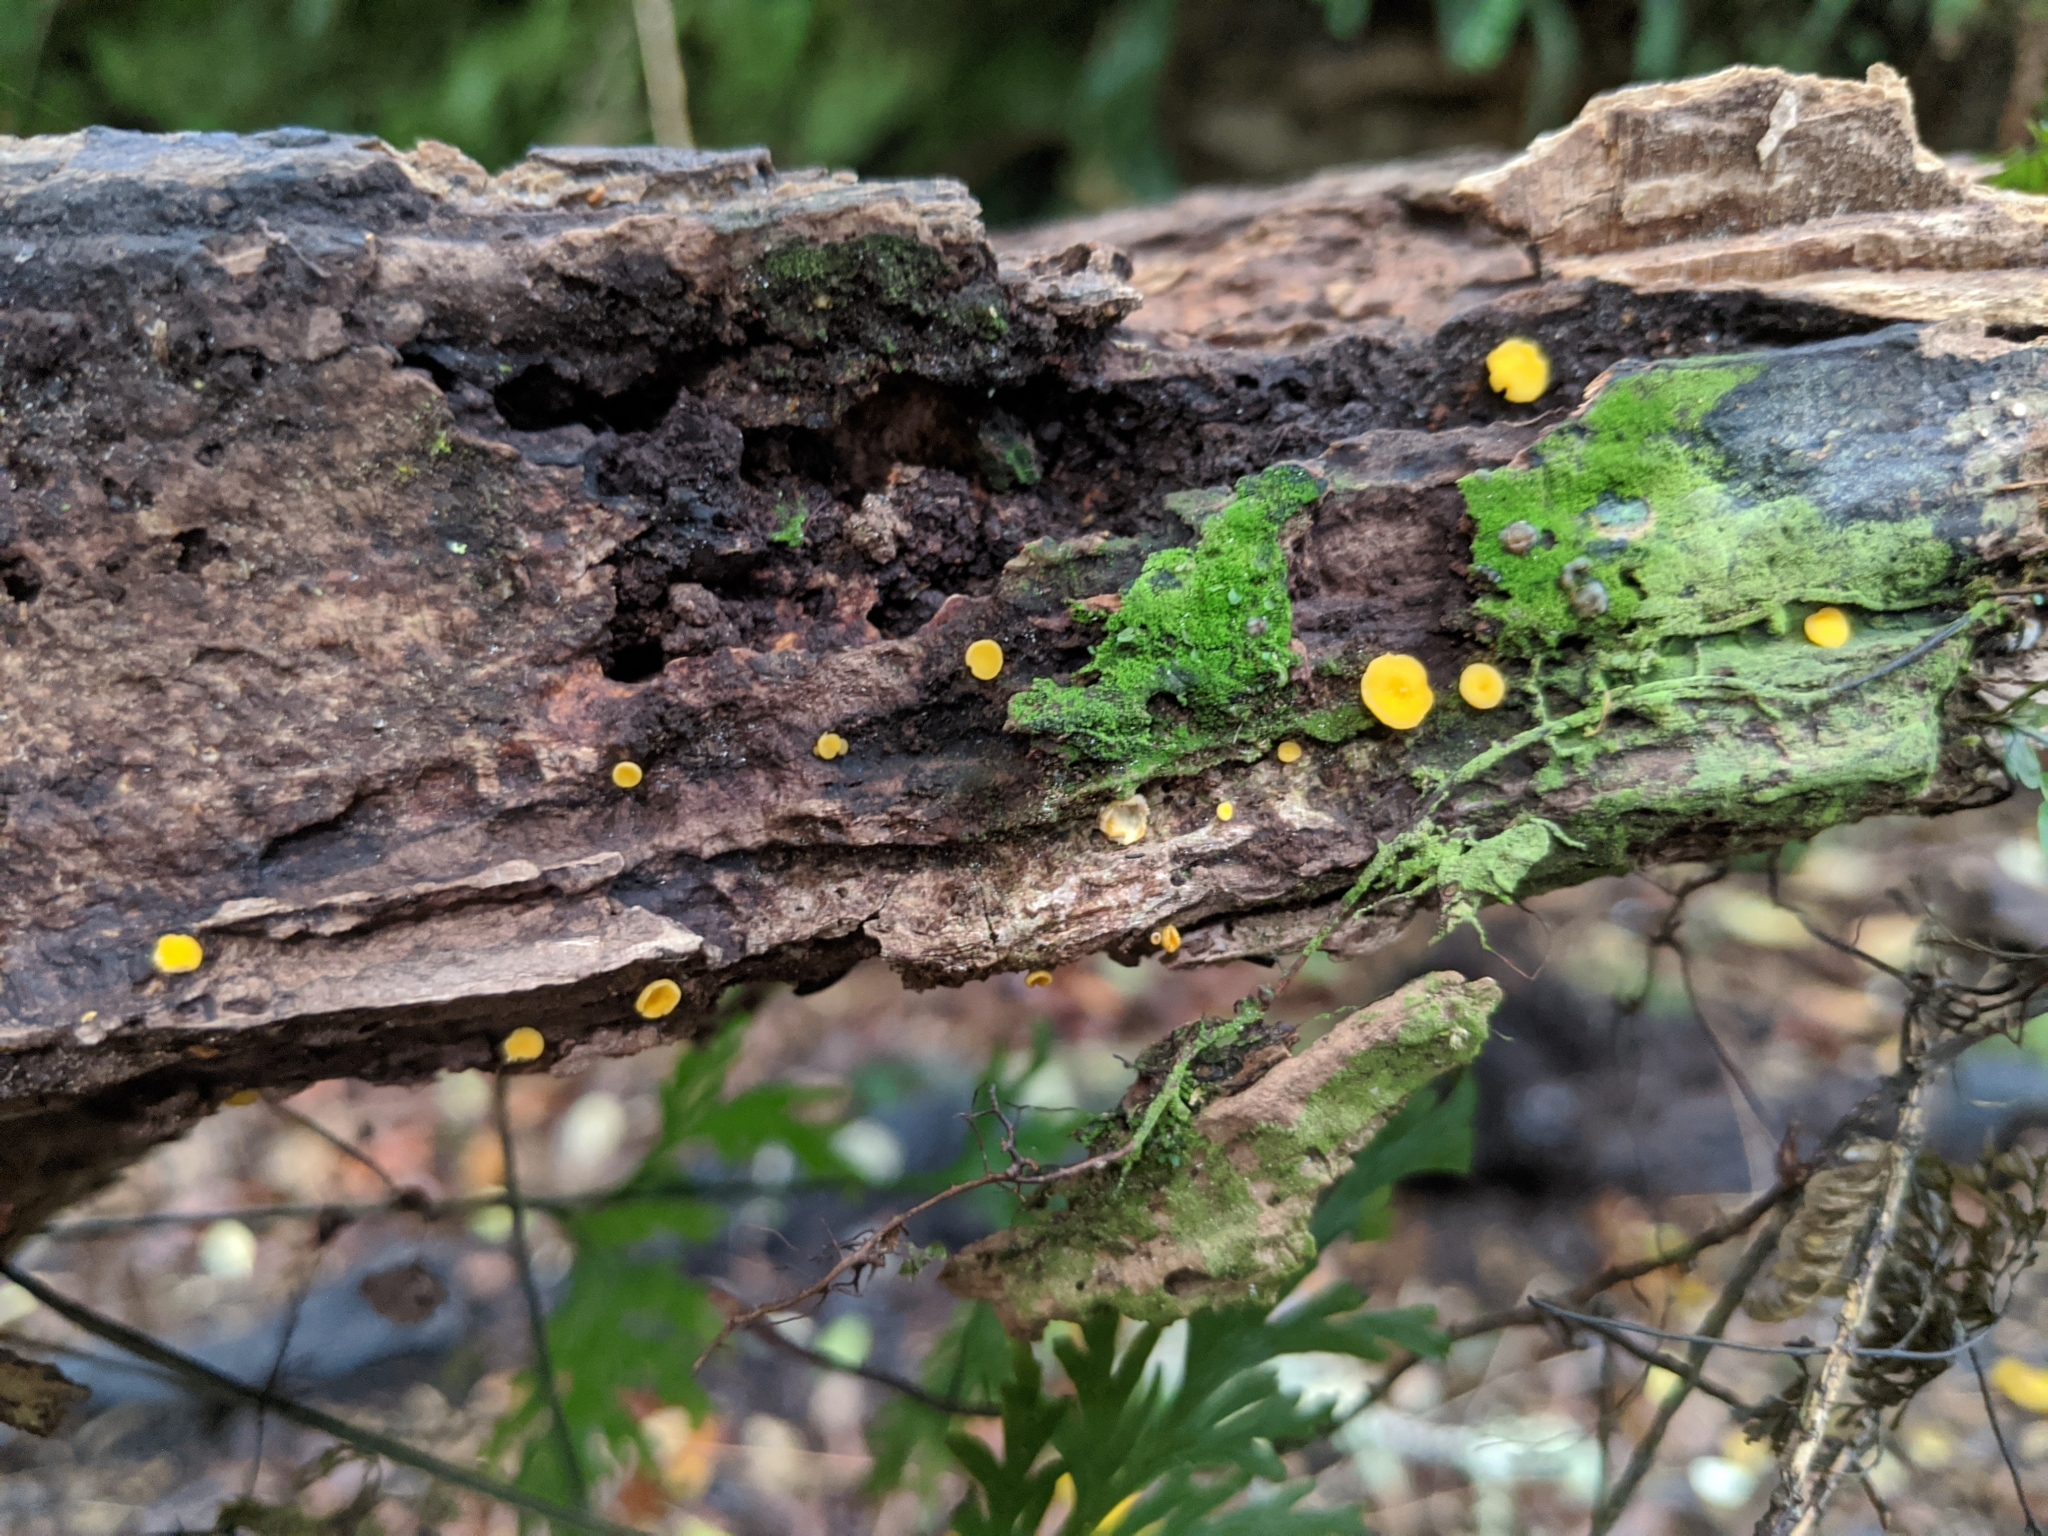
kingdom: Fungi
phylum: Ascomycota
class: Leotiomycetes
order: Helotiales
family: Pezizellaceae
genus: Calycina
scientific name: Calycina citrina
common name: Yellow fairy cups
